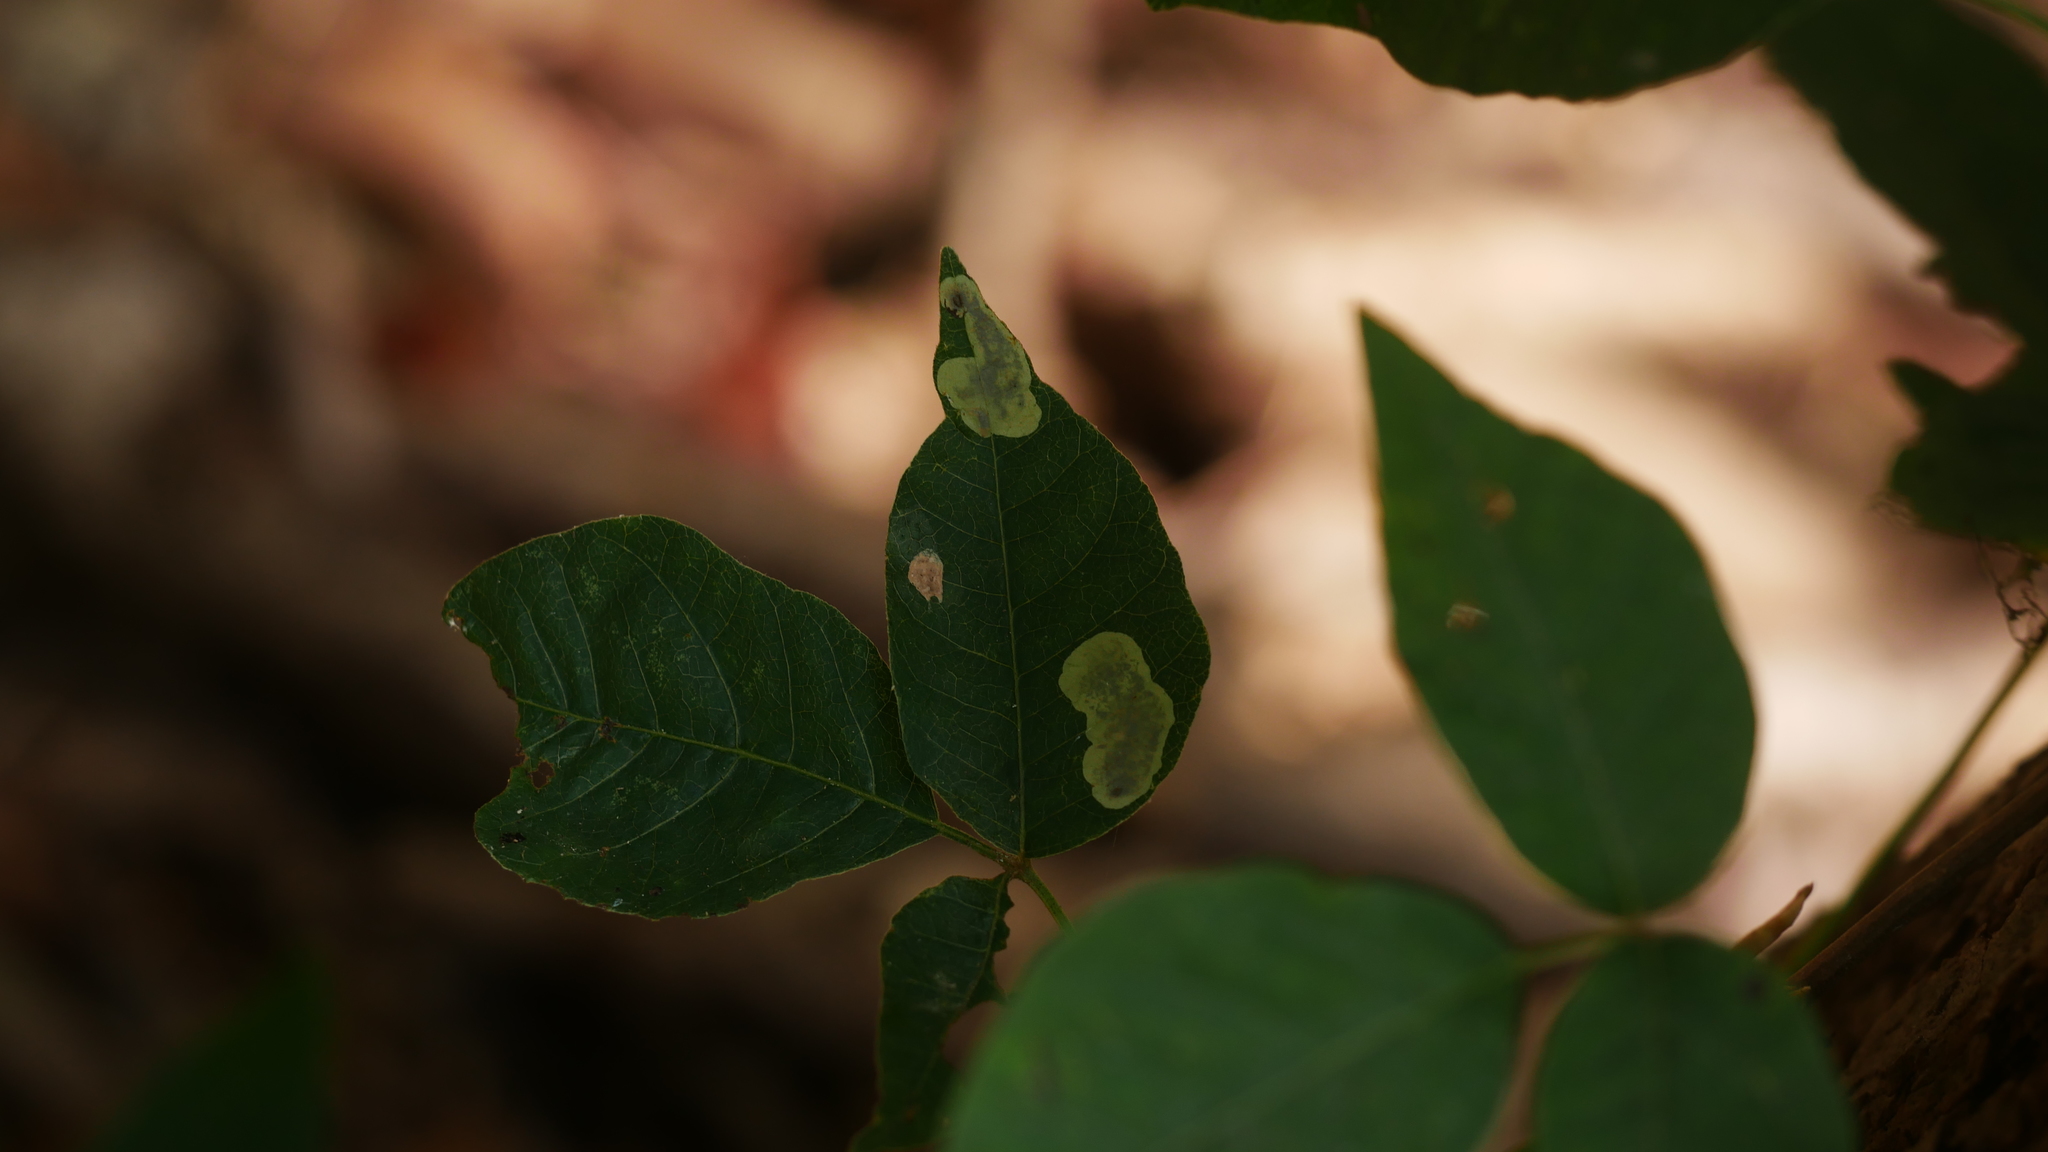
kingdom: Animalia
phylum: Arthropoda
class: Insecta
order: Lepidoptera
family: Gracillariidae
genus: Cameraria
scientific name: Cameraria guttifinitella
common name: Poison ivy leaf-miner moth
